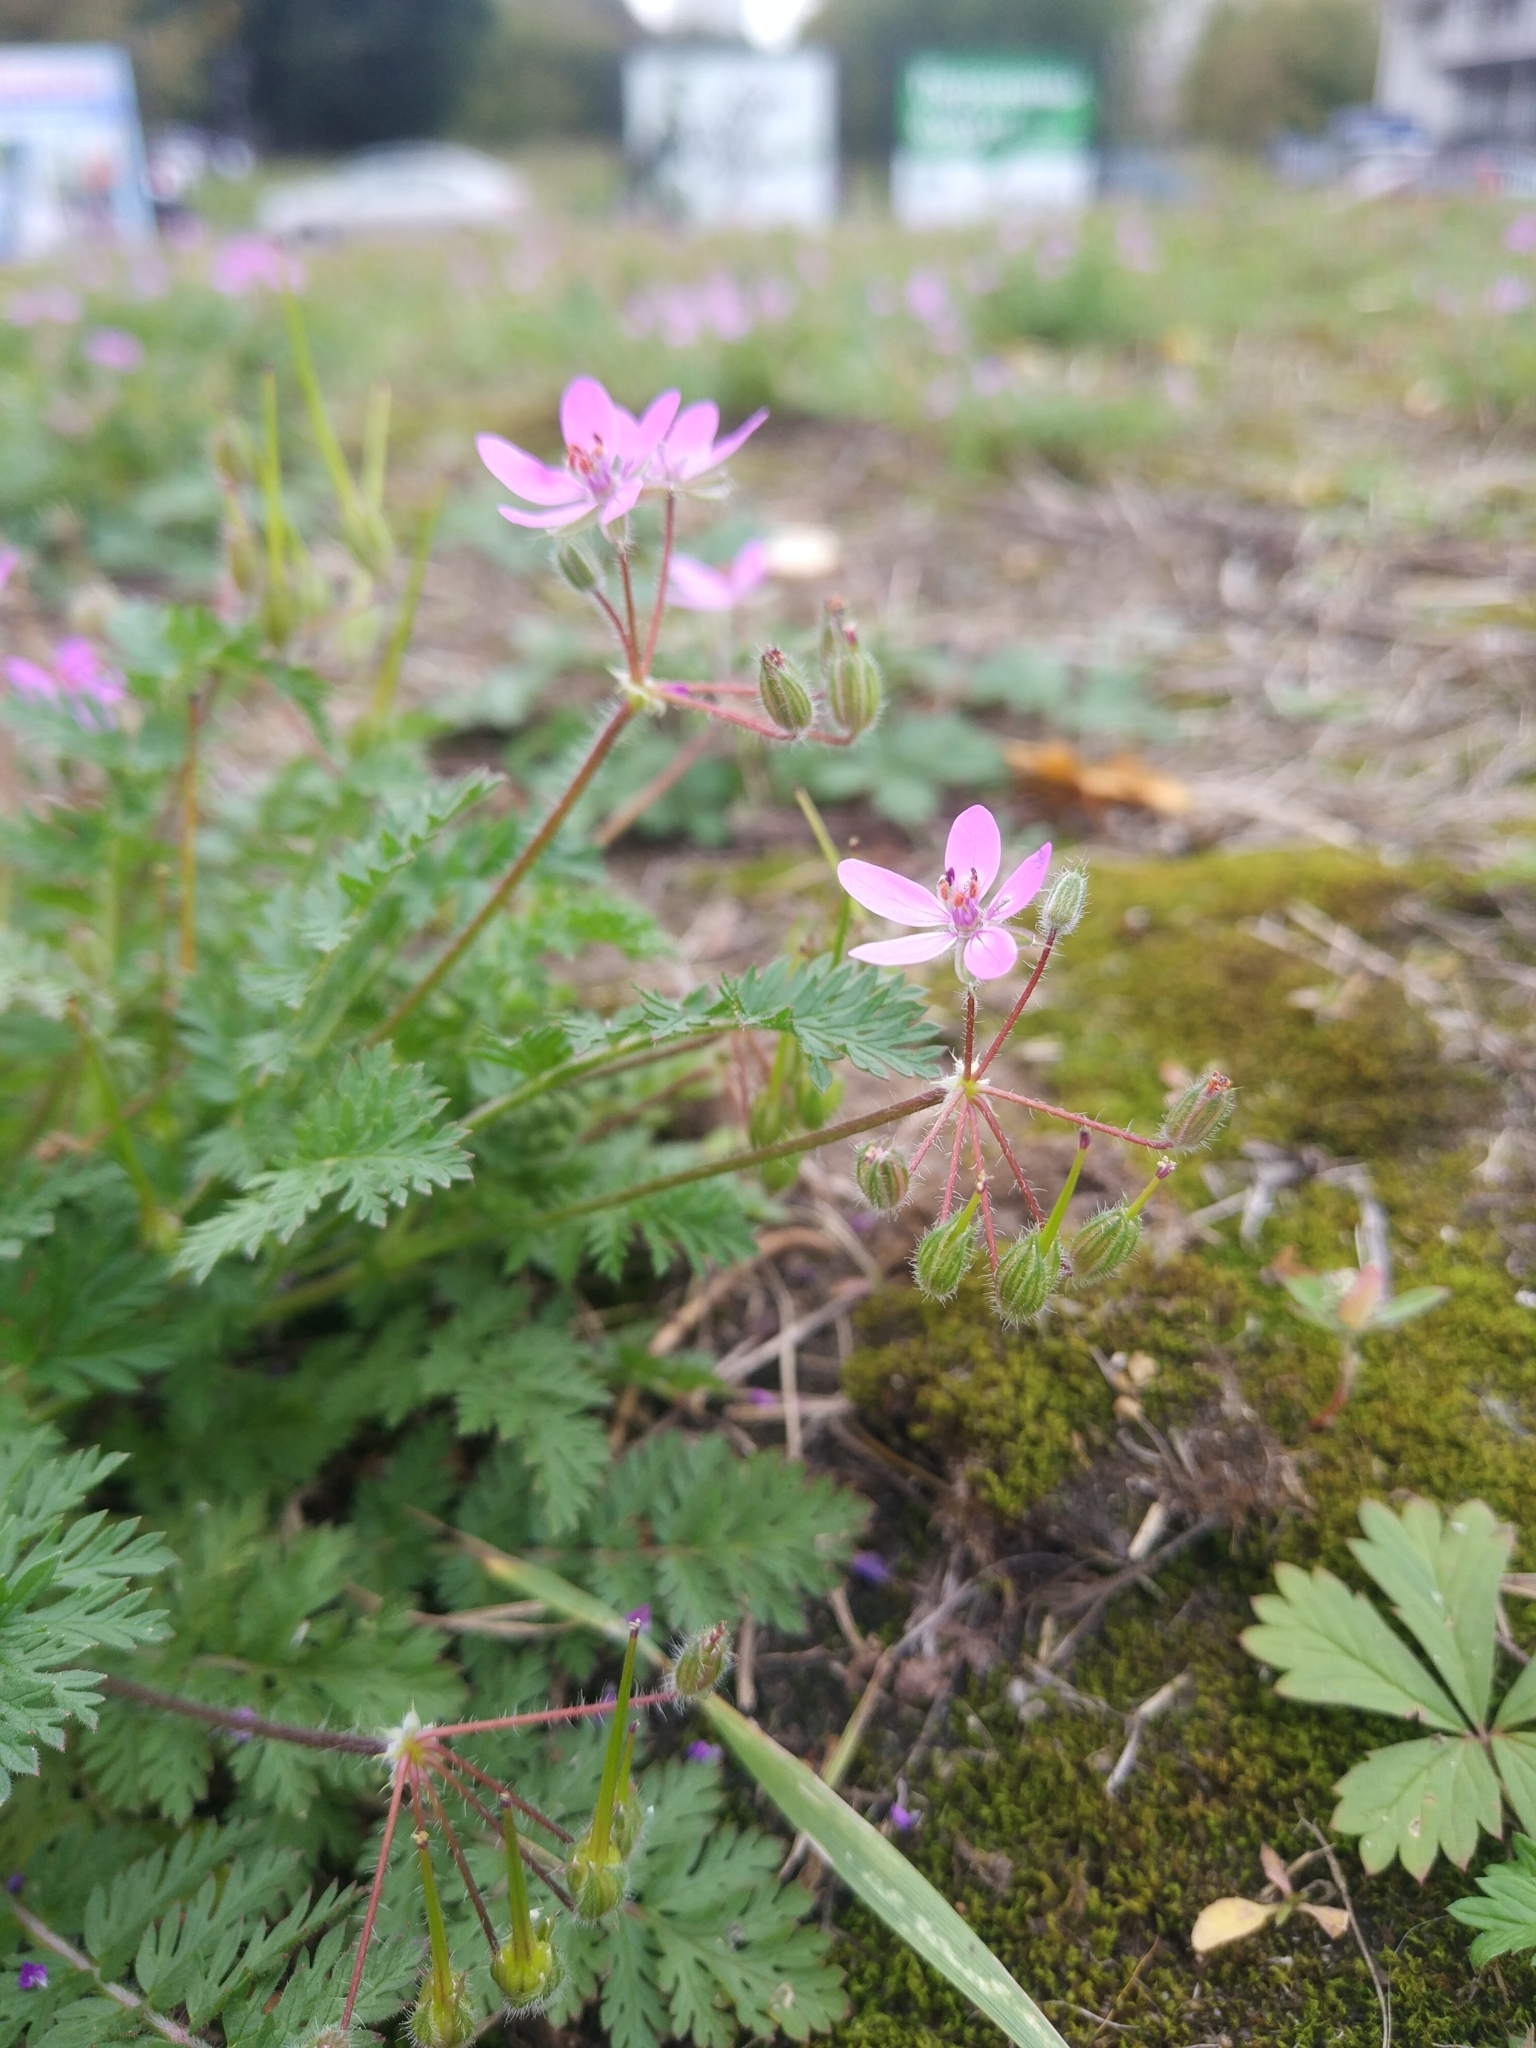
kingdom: Plantae
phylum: Tracheophyta
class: Magnoliopsida
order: Geraniales
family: Geraniaceae
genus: Erodium
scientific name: Erodium cicutarium
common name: Common stork's-bill
